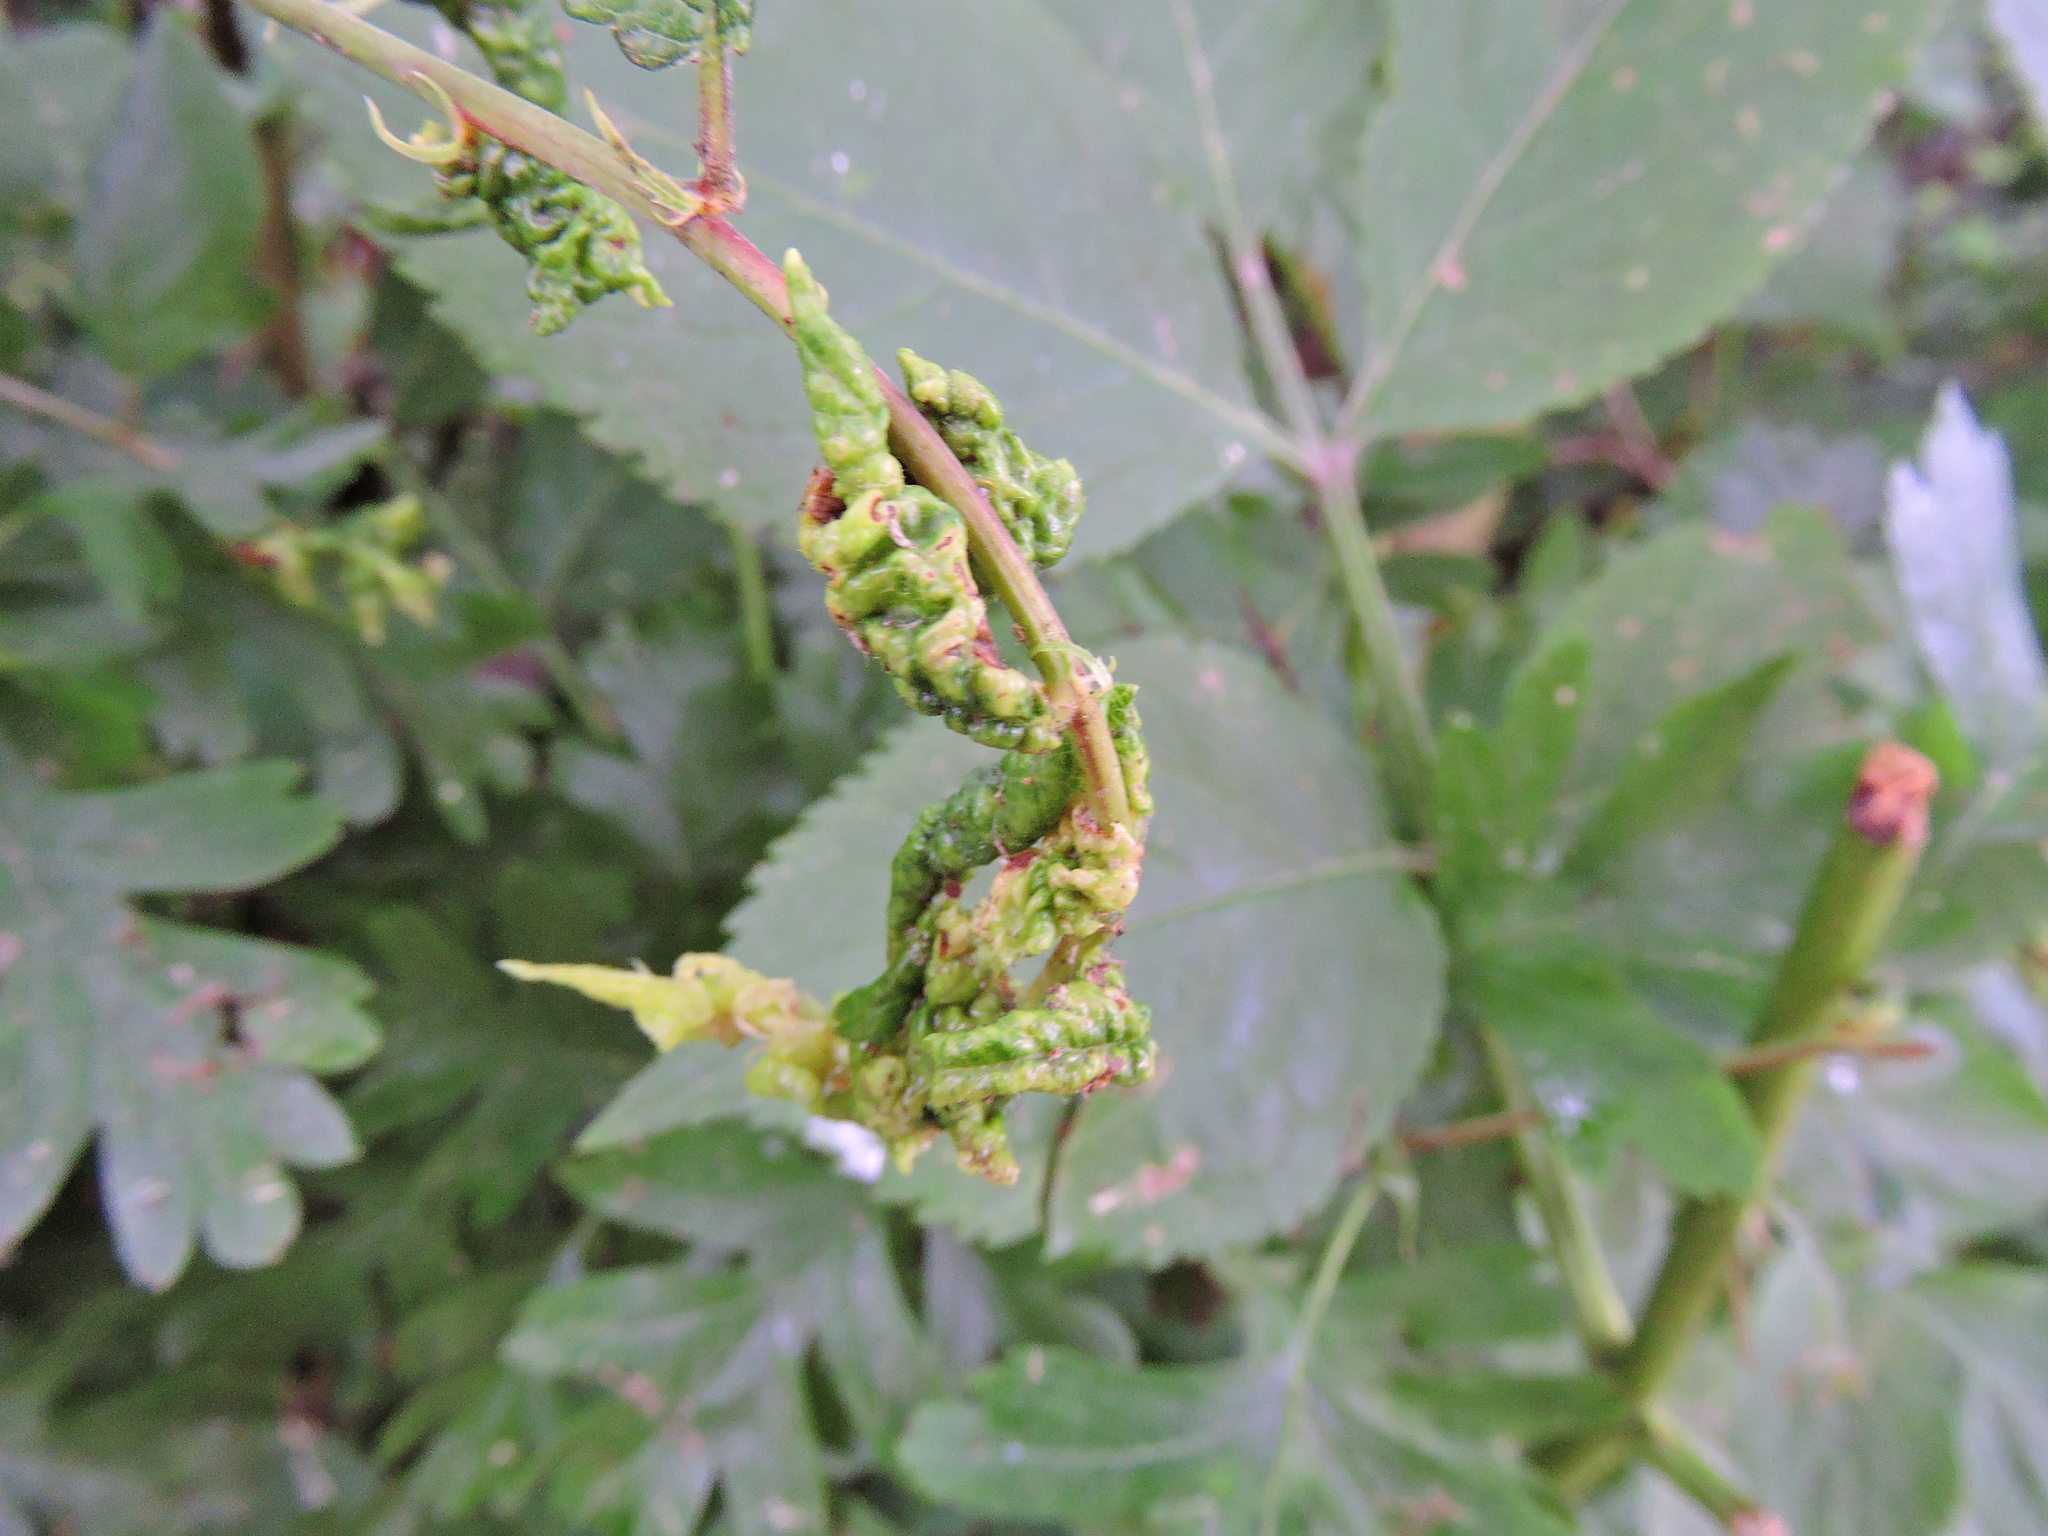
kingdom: Animalia
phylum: Arthropoda
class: Insecta
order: Hemiptera
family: Aphididae
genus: Hyalopterus
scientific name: Hyalopterus pruni
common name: Mealy plum aphid
